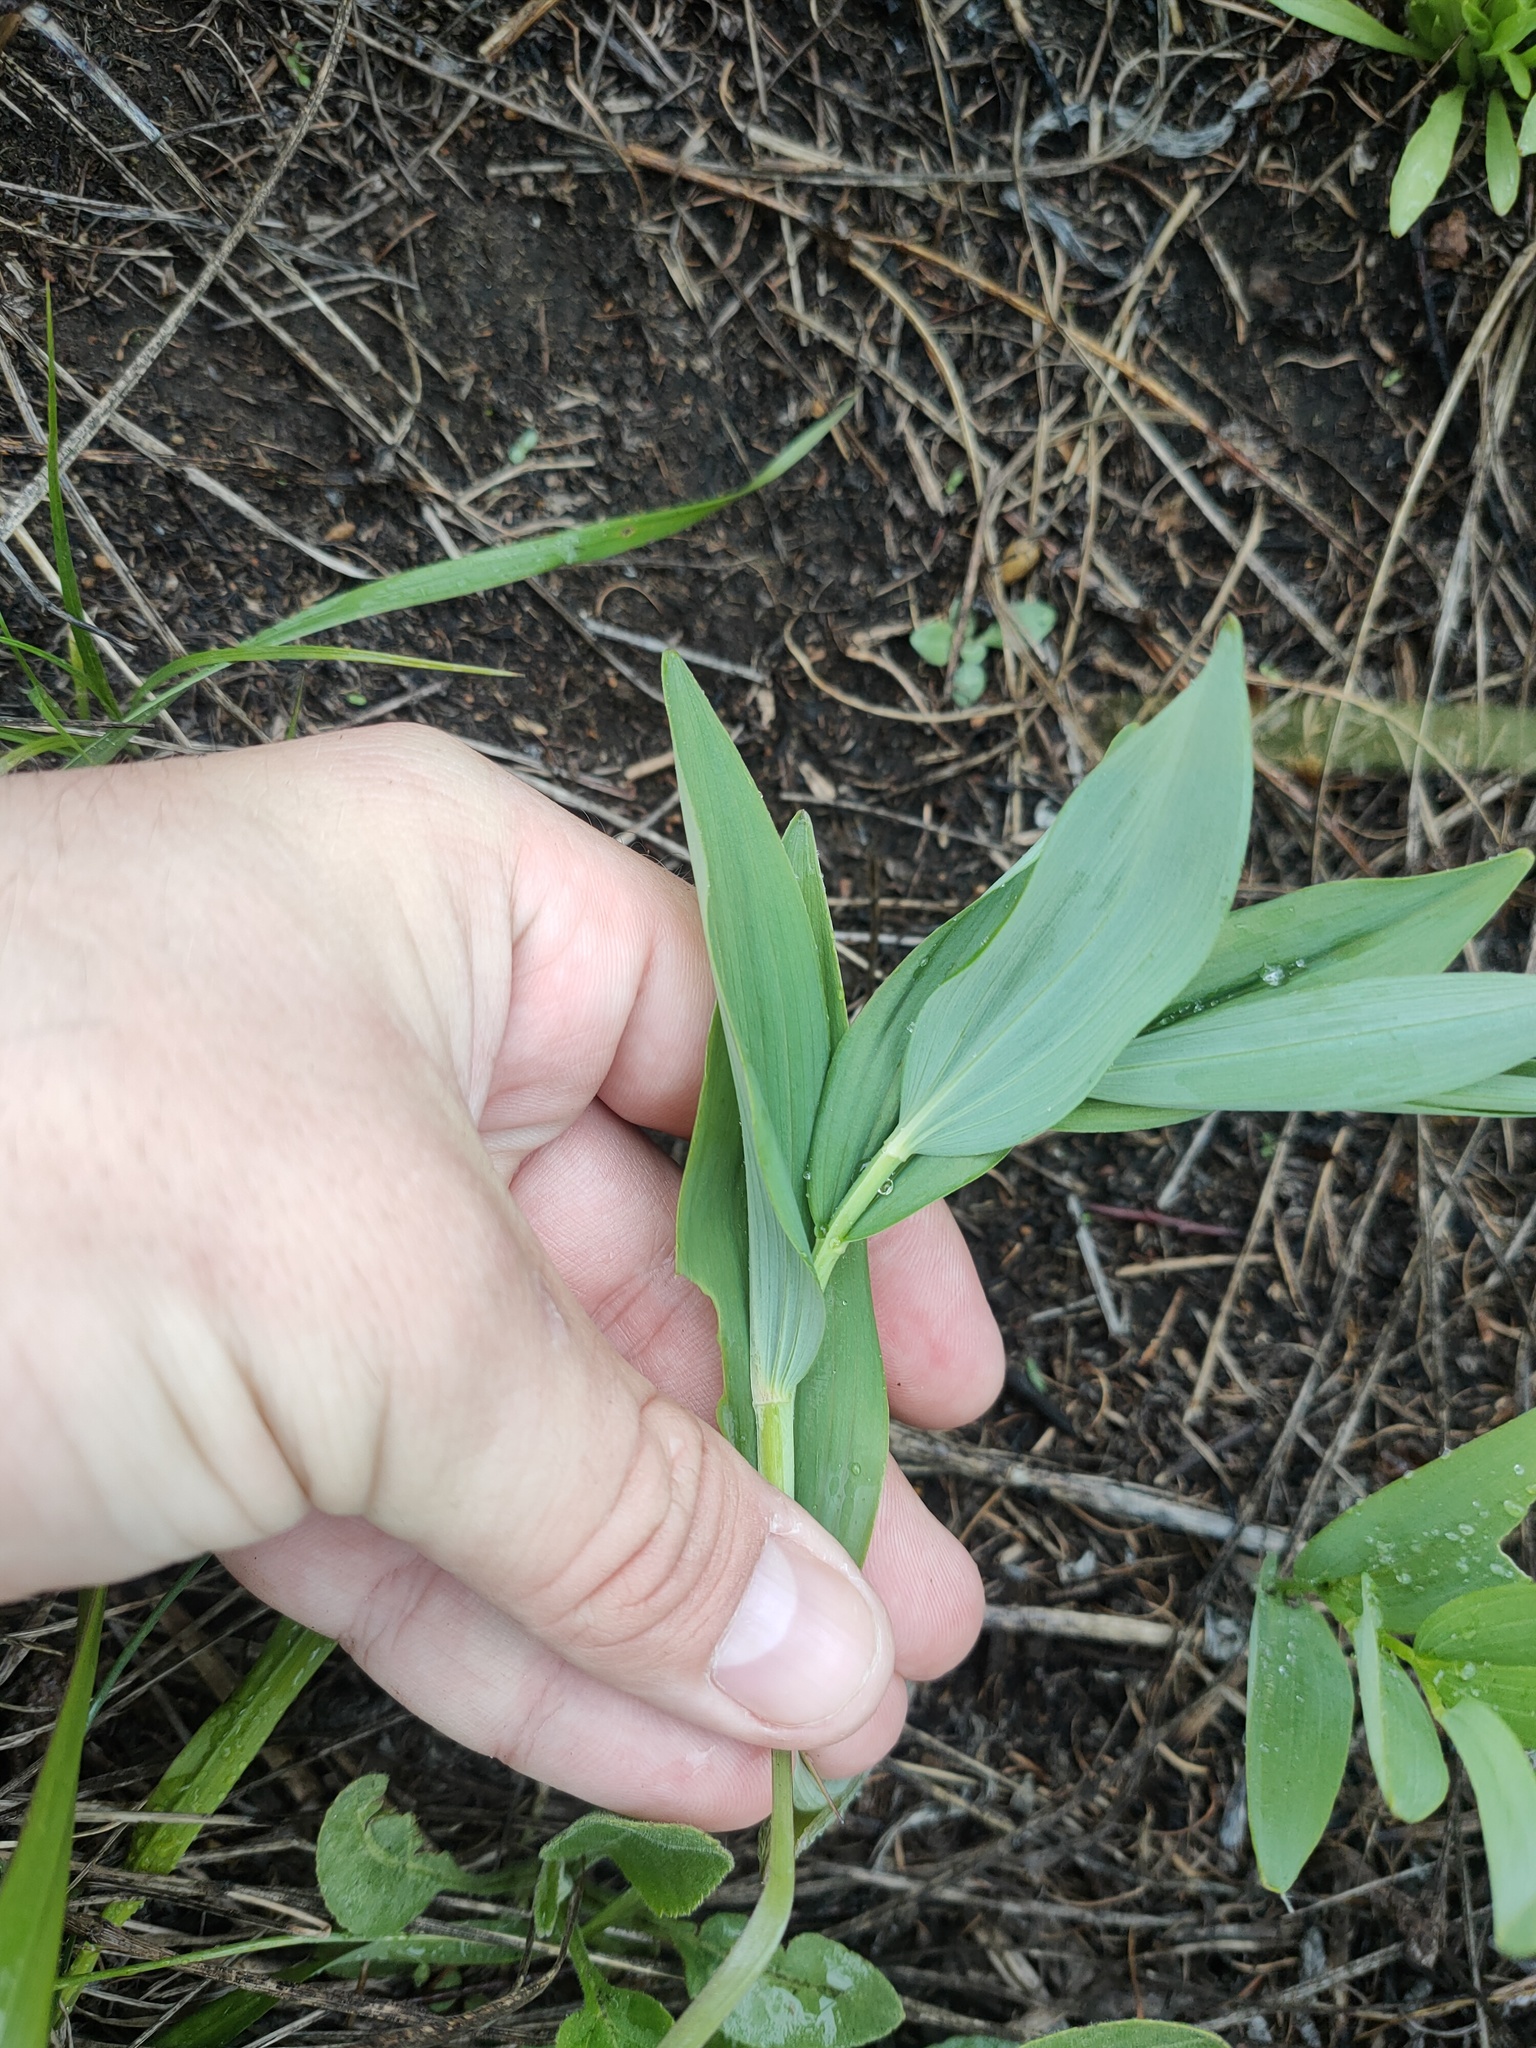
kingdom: Plantae
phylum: Tracheophyta
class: Liliopsida
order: Asparagales
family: Asparagaceae
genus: Polygonatum
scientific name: Polygonatum odoratum
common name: Angular solomon's-seal
